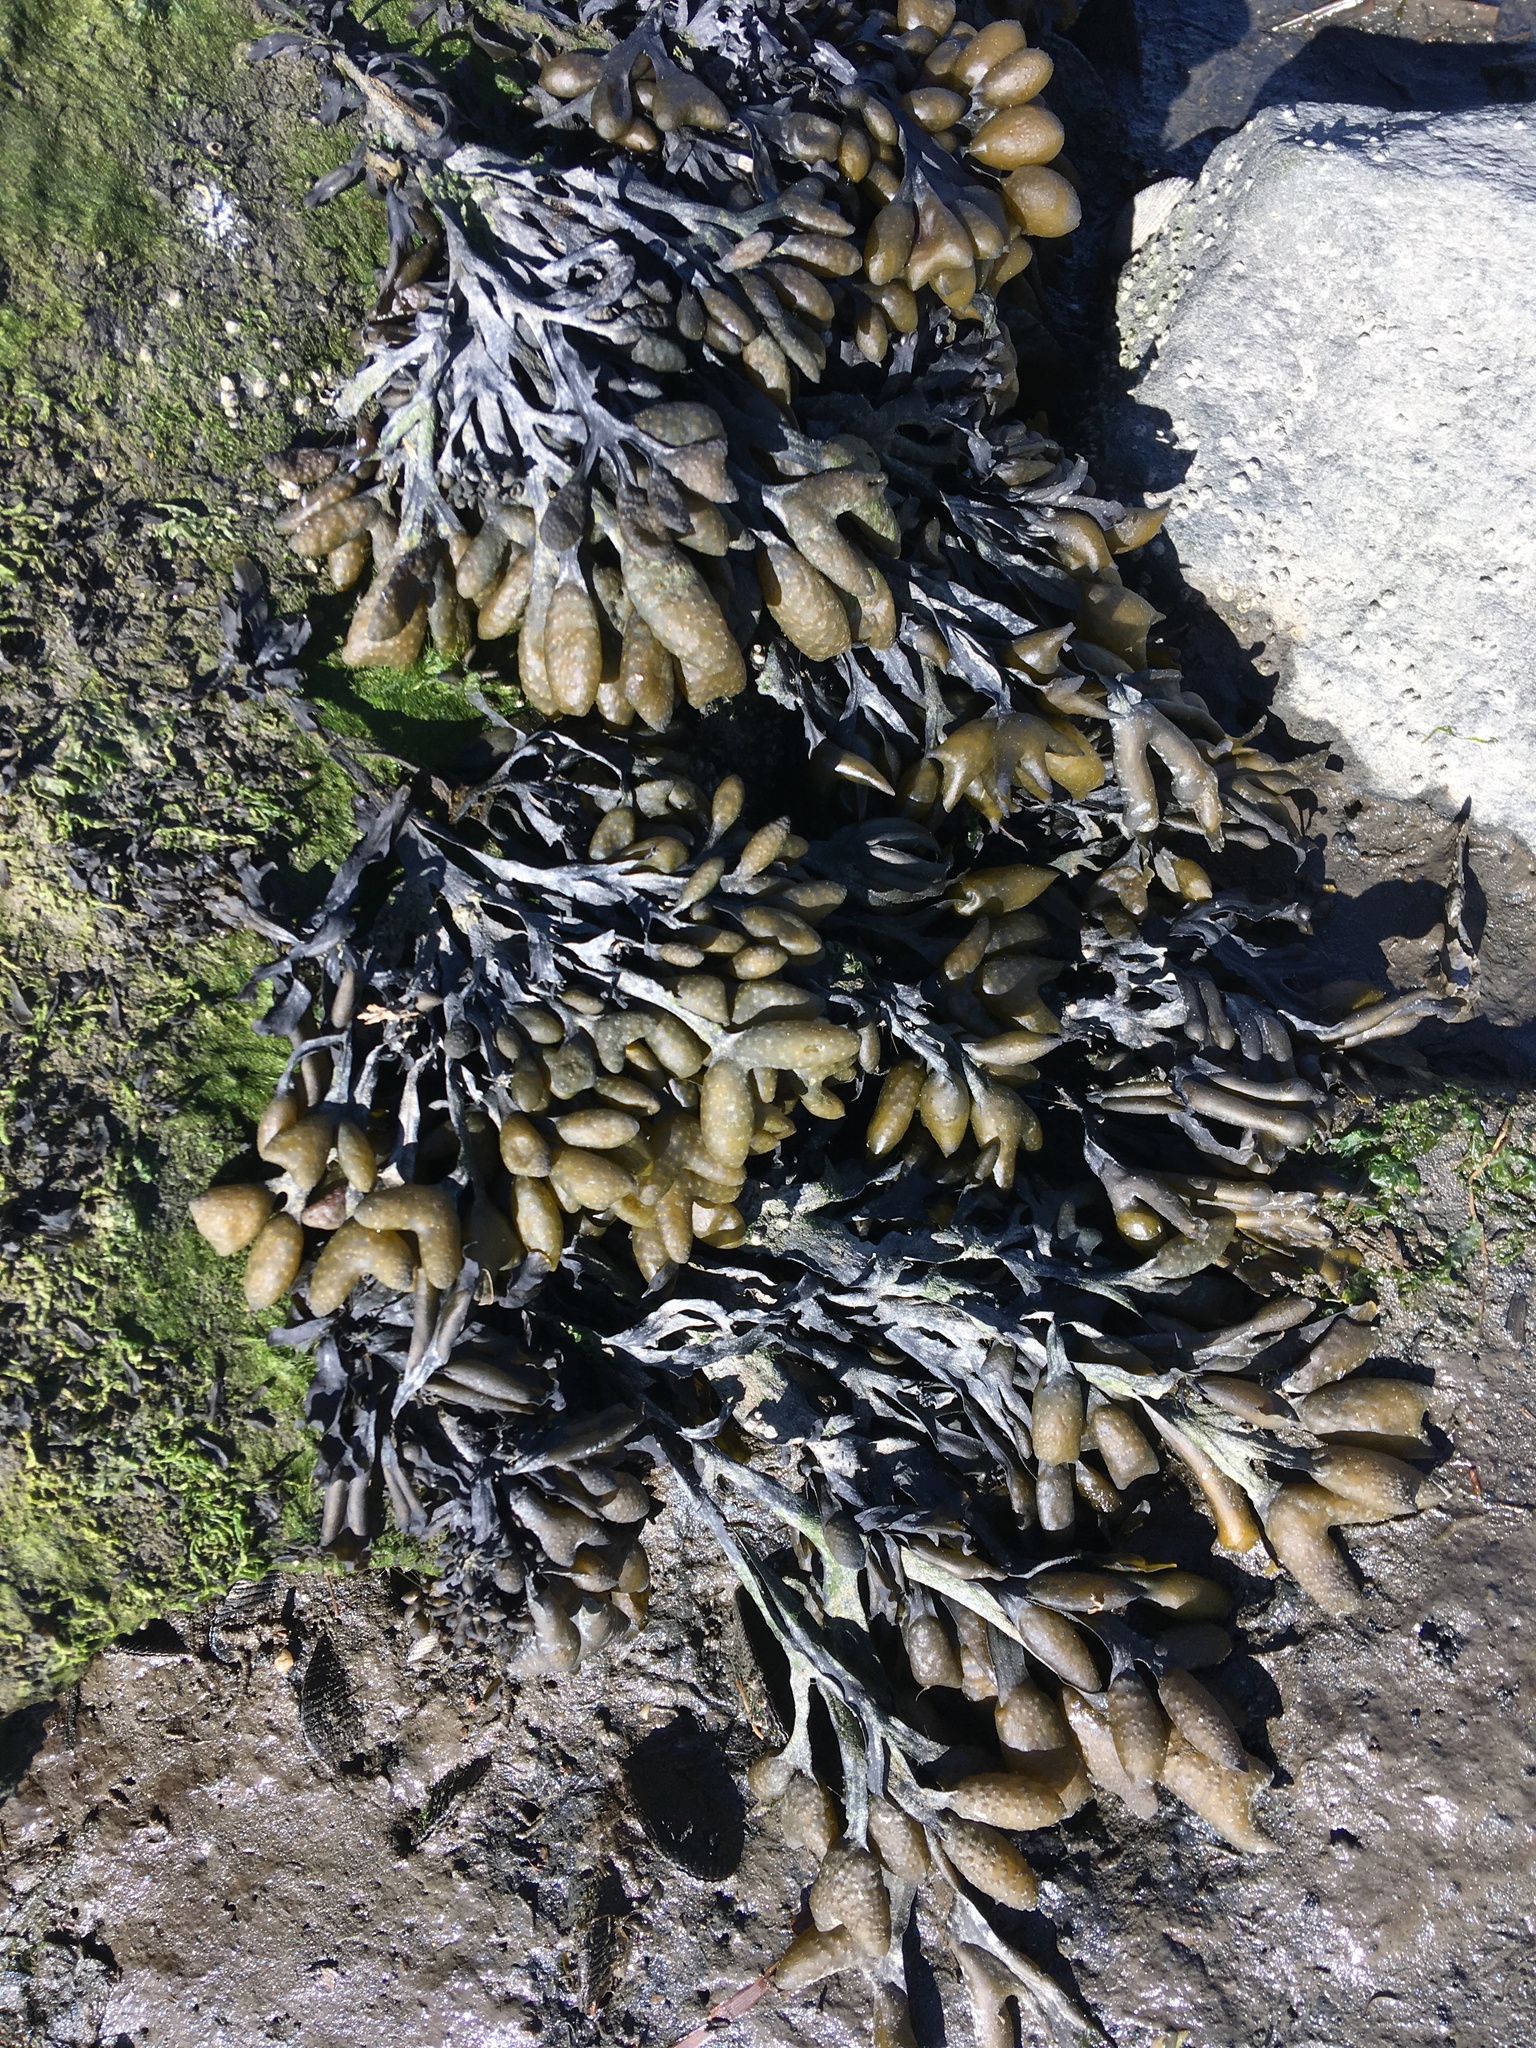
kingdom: Chromista
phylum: Ochrophyta
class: Phaeophyceae
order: Fucales
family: Fucaceae
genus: Fucus
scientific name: Fucus distichus
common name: Rockweed
